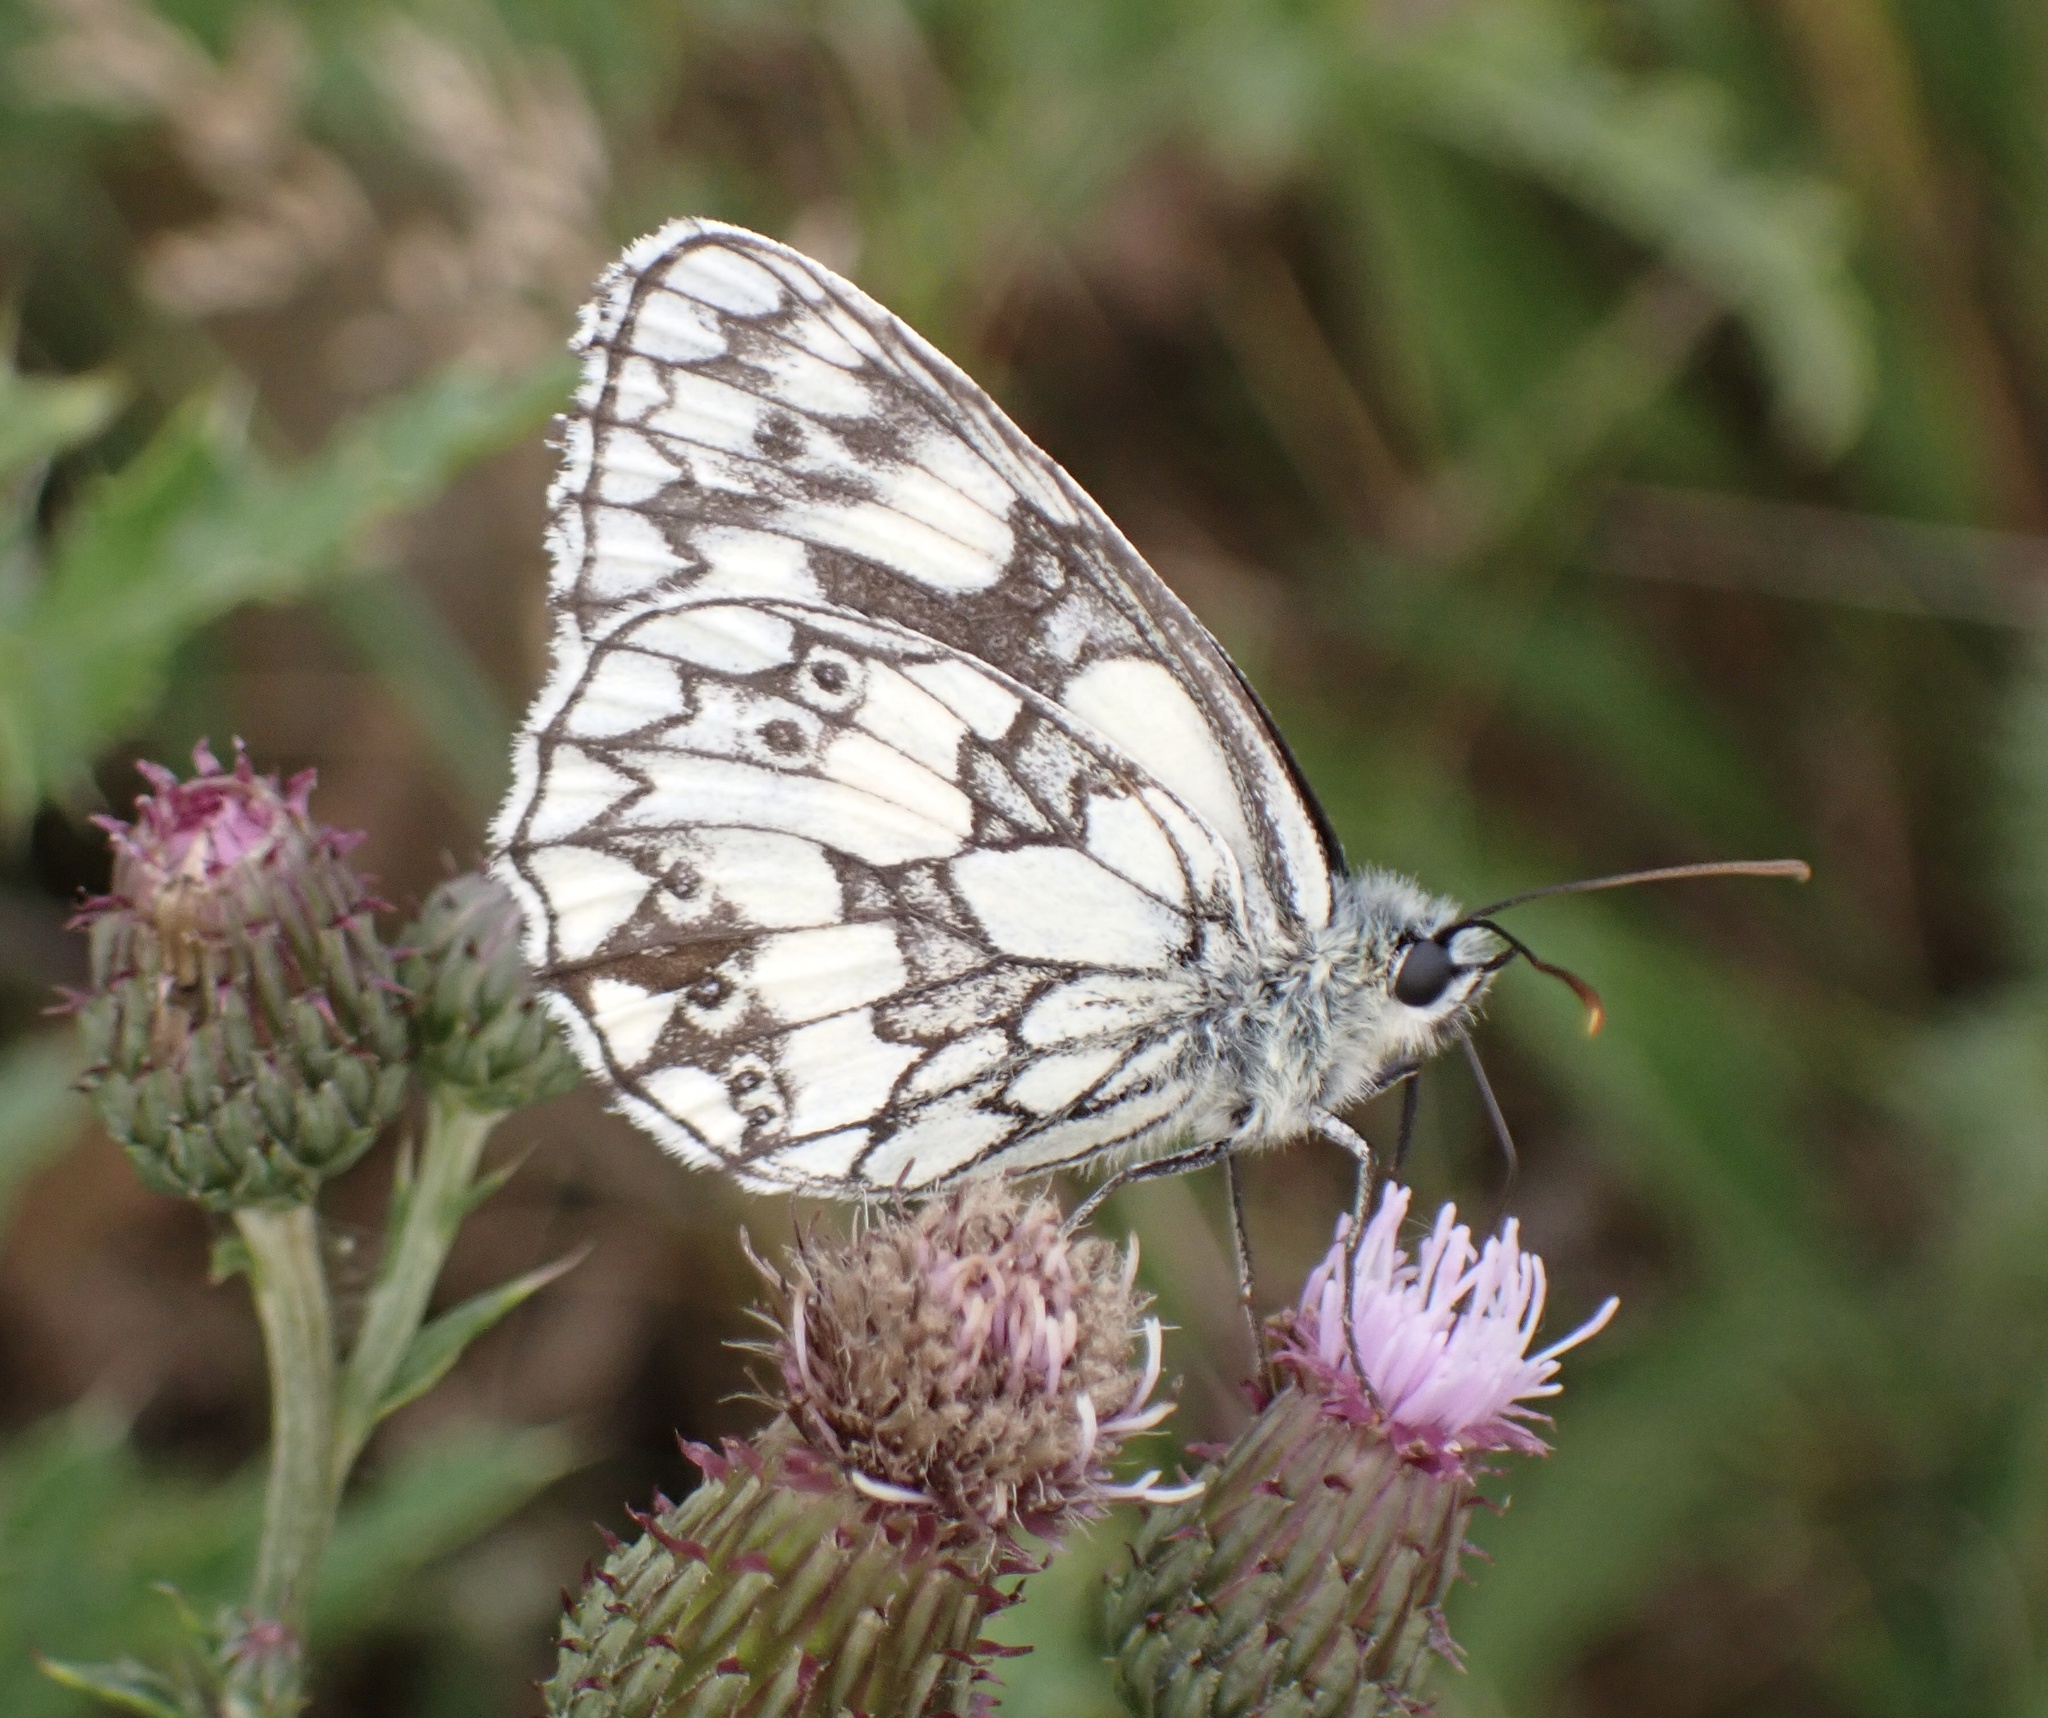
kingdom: Animalia
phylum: Arthropoda
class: Insecta
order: Lepidoptera
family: Nymphalidae
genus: Melanargia
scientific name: Melanargia galathea
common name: Marbled white
